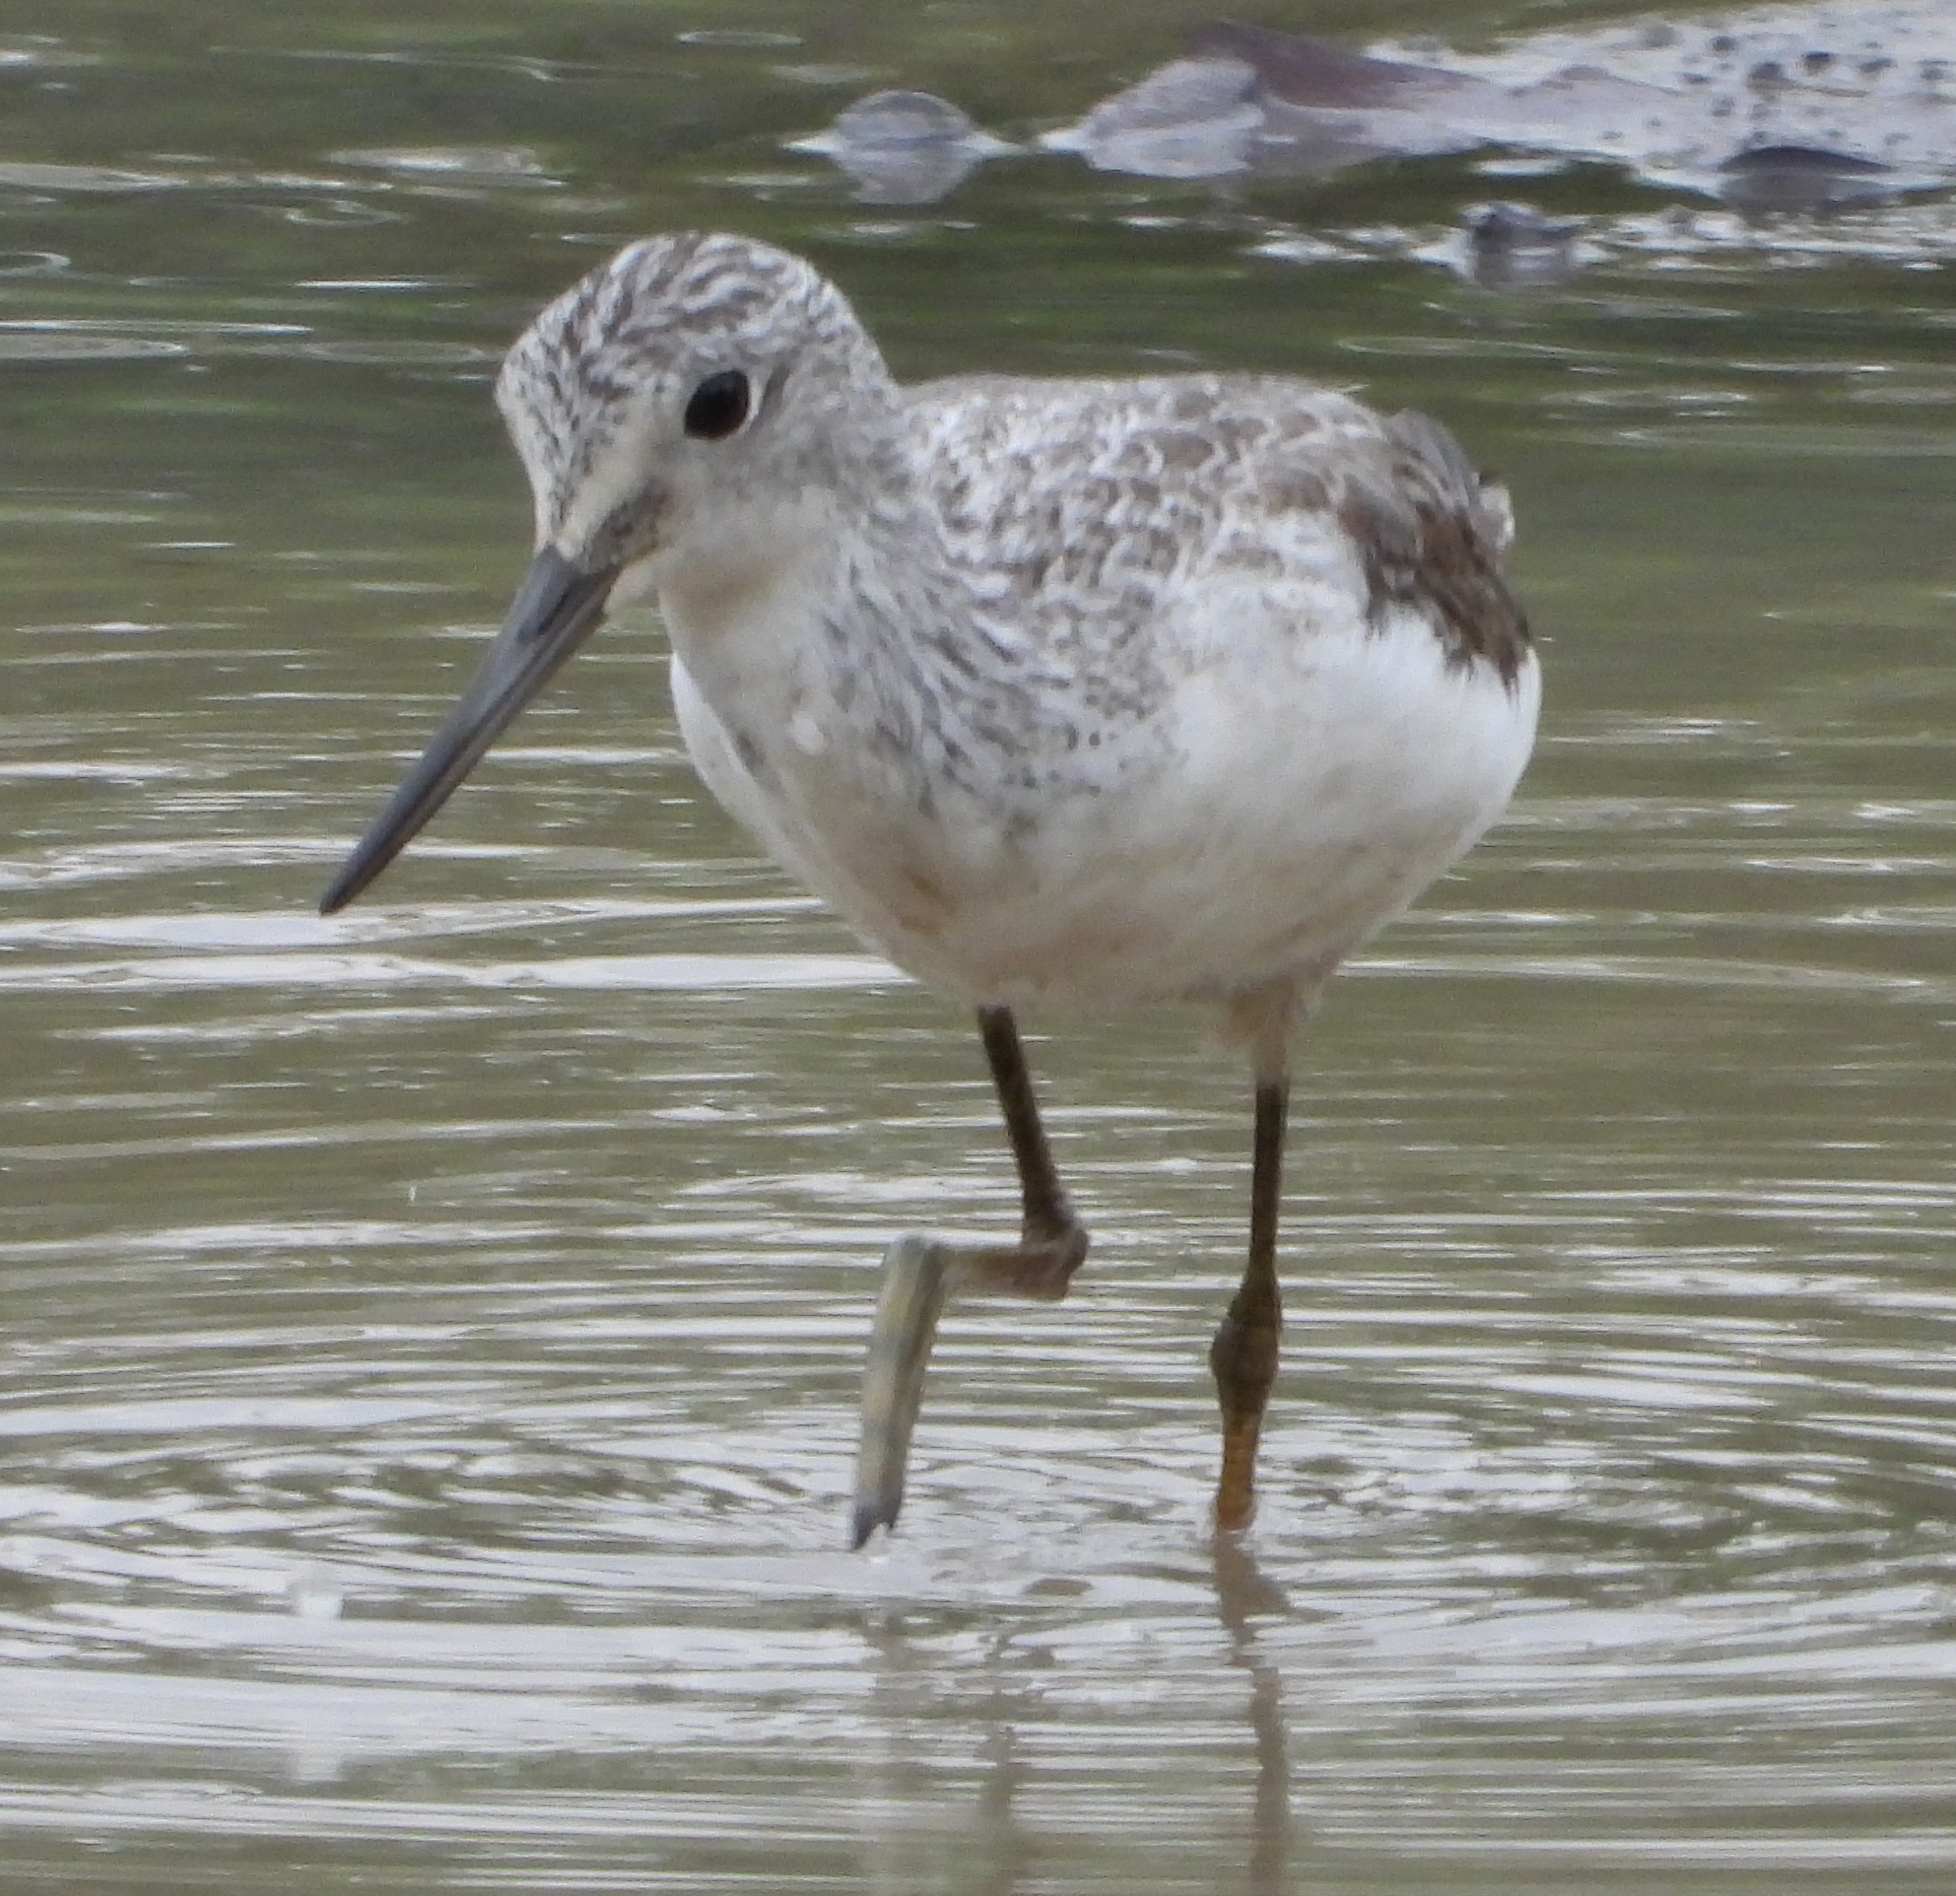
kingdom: Animalia
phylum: Chordata
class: Aves
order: Charadriiformes
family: Scolopacidae
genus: Tringa
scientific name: Tringa nebularia
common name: Common greenshank
